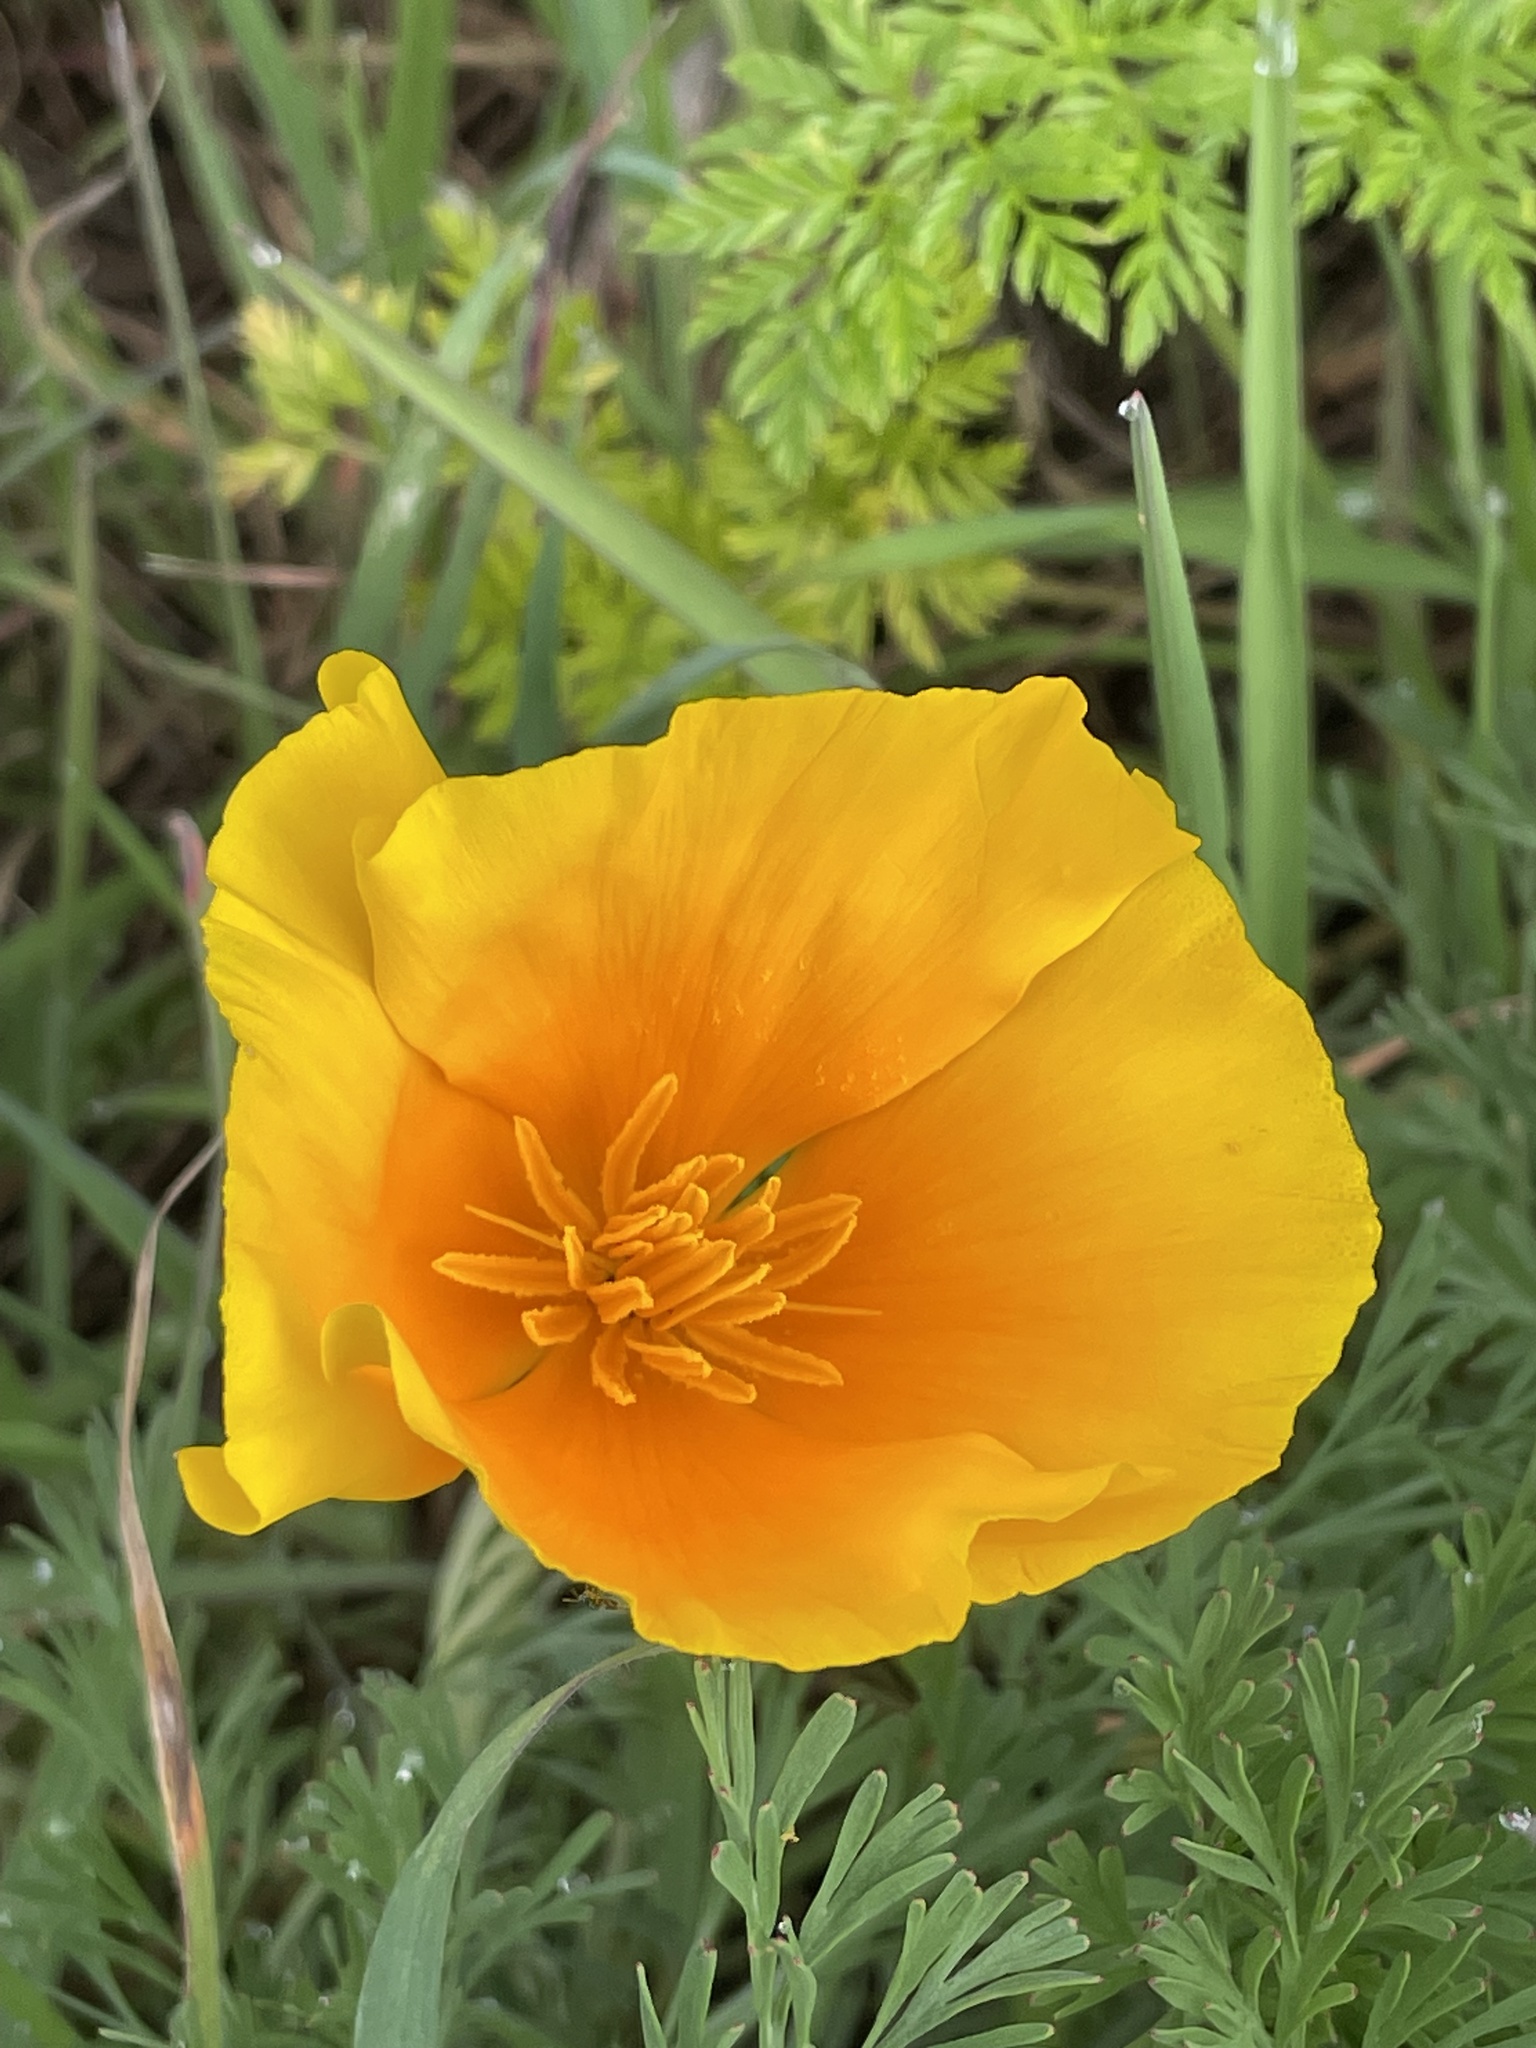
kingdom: Plantae
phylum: Tracheophyta
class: Magnoliopsida
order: Ranunculales
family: Papaveraceae
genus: Eschscholzia
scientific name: Eschscholzia californica
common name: California poppy
